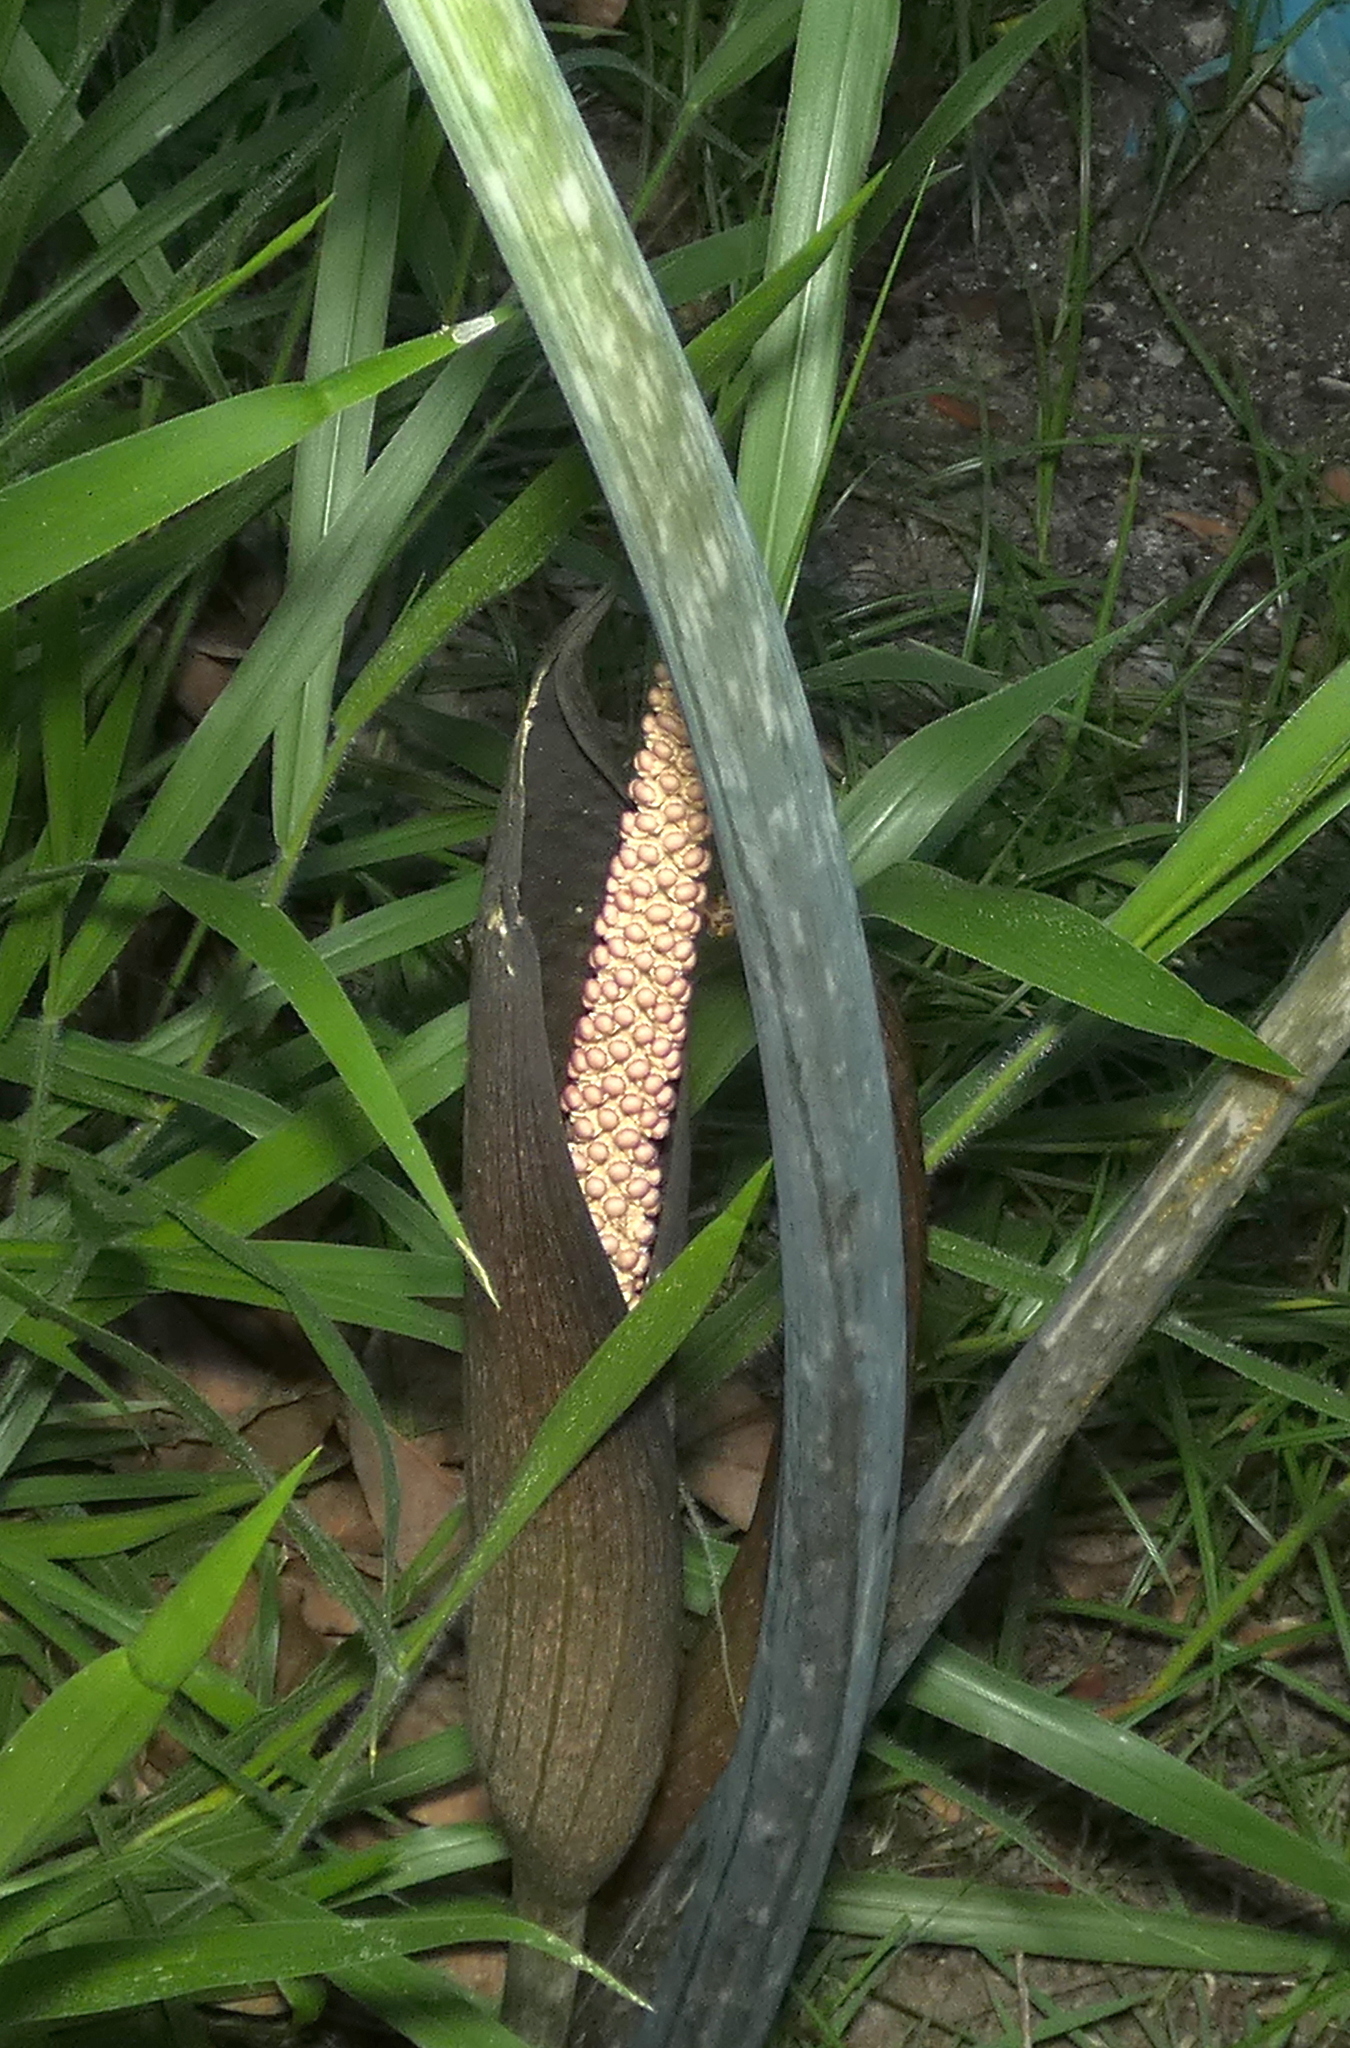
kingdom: Plantae
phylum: Tracheophyta
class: Liliopsida
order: Alismatales
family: Araceae
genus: Taccarum
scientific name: Taccarum ulei
